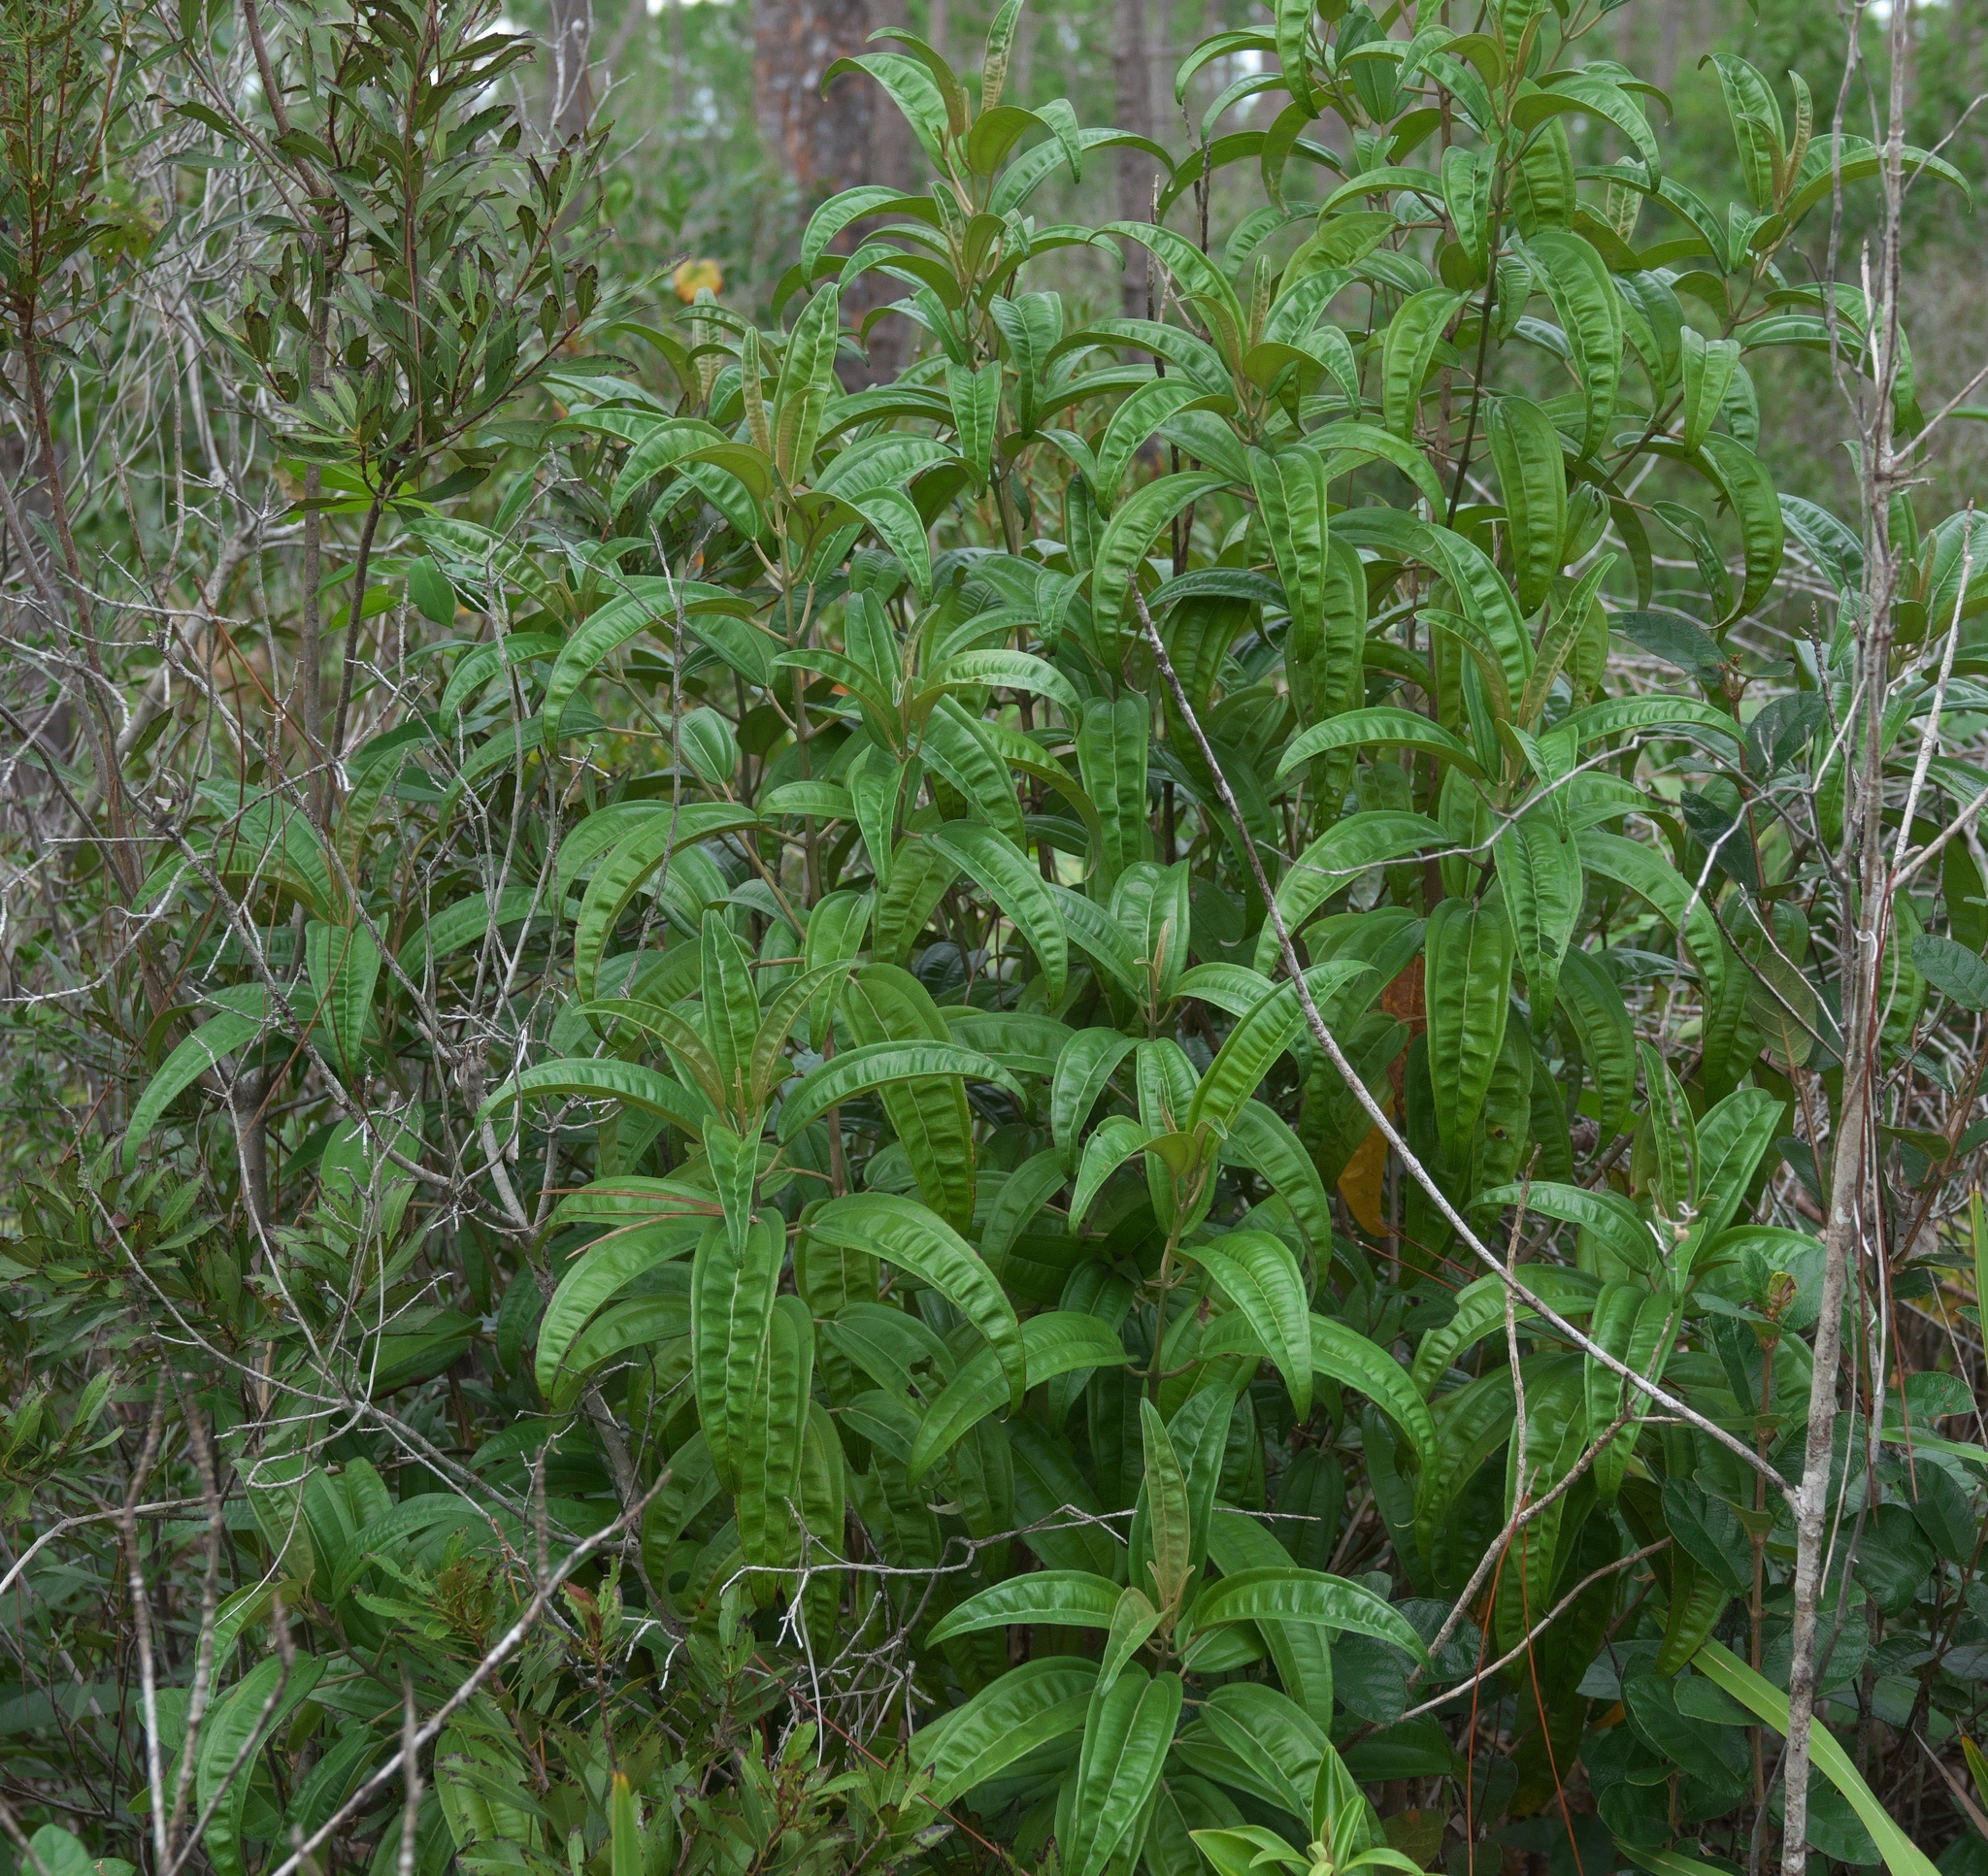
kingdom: Plantae
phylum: Tracheophyta
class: Magnoliopsida
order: Myrtales
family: Melastomataceae
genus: Miconia
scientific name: Miconia bicolor
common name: Johnnyberry
